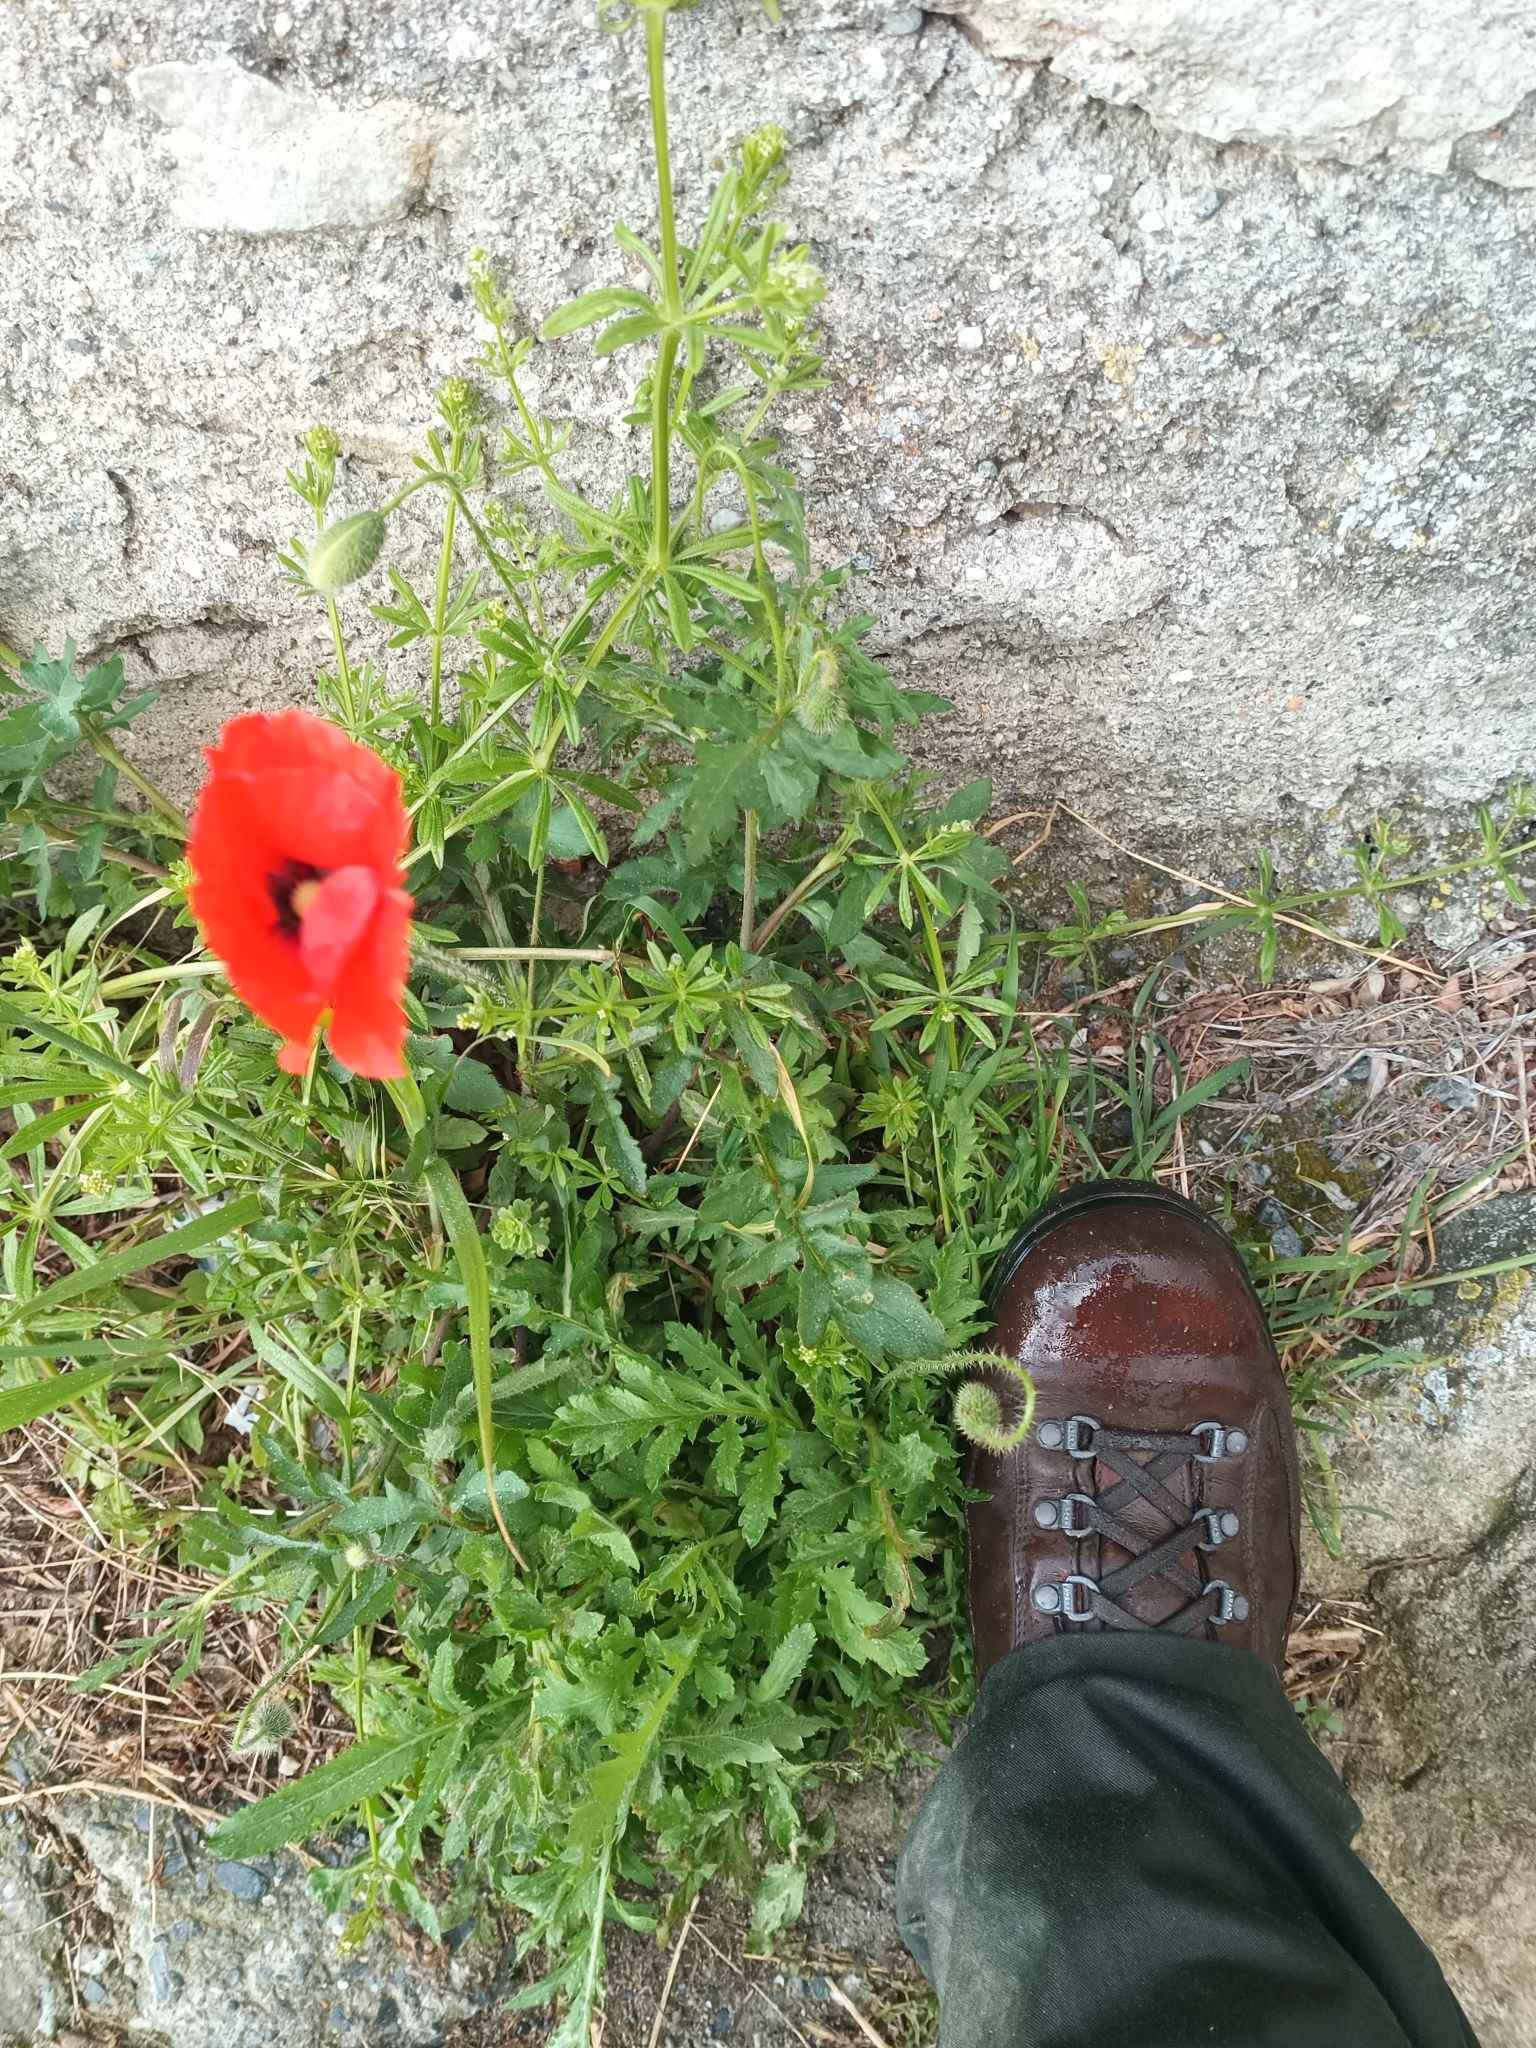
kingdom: Plantae
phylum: Tracheophyta
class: Magnoliopsida
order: Ranunculales
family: Papaveraceae
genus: Papaver
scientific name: Papaver rhoeas
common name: Corn poppy
